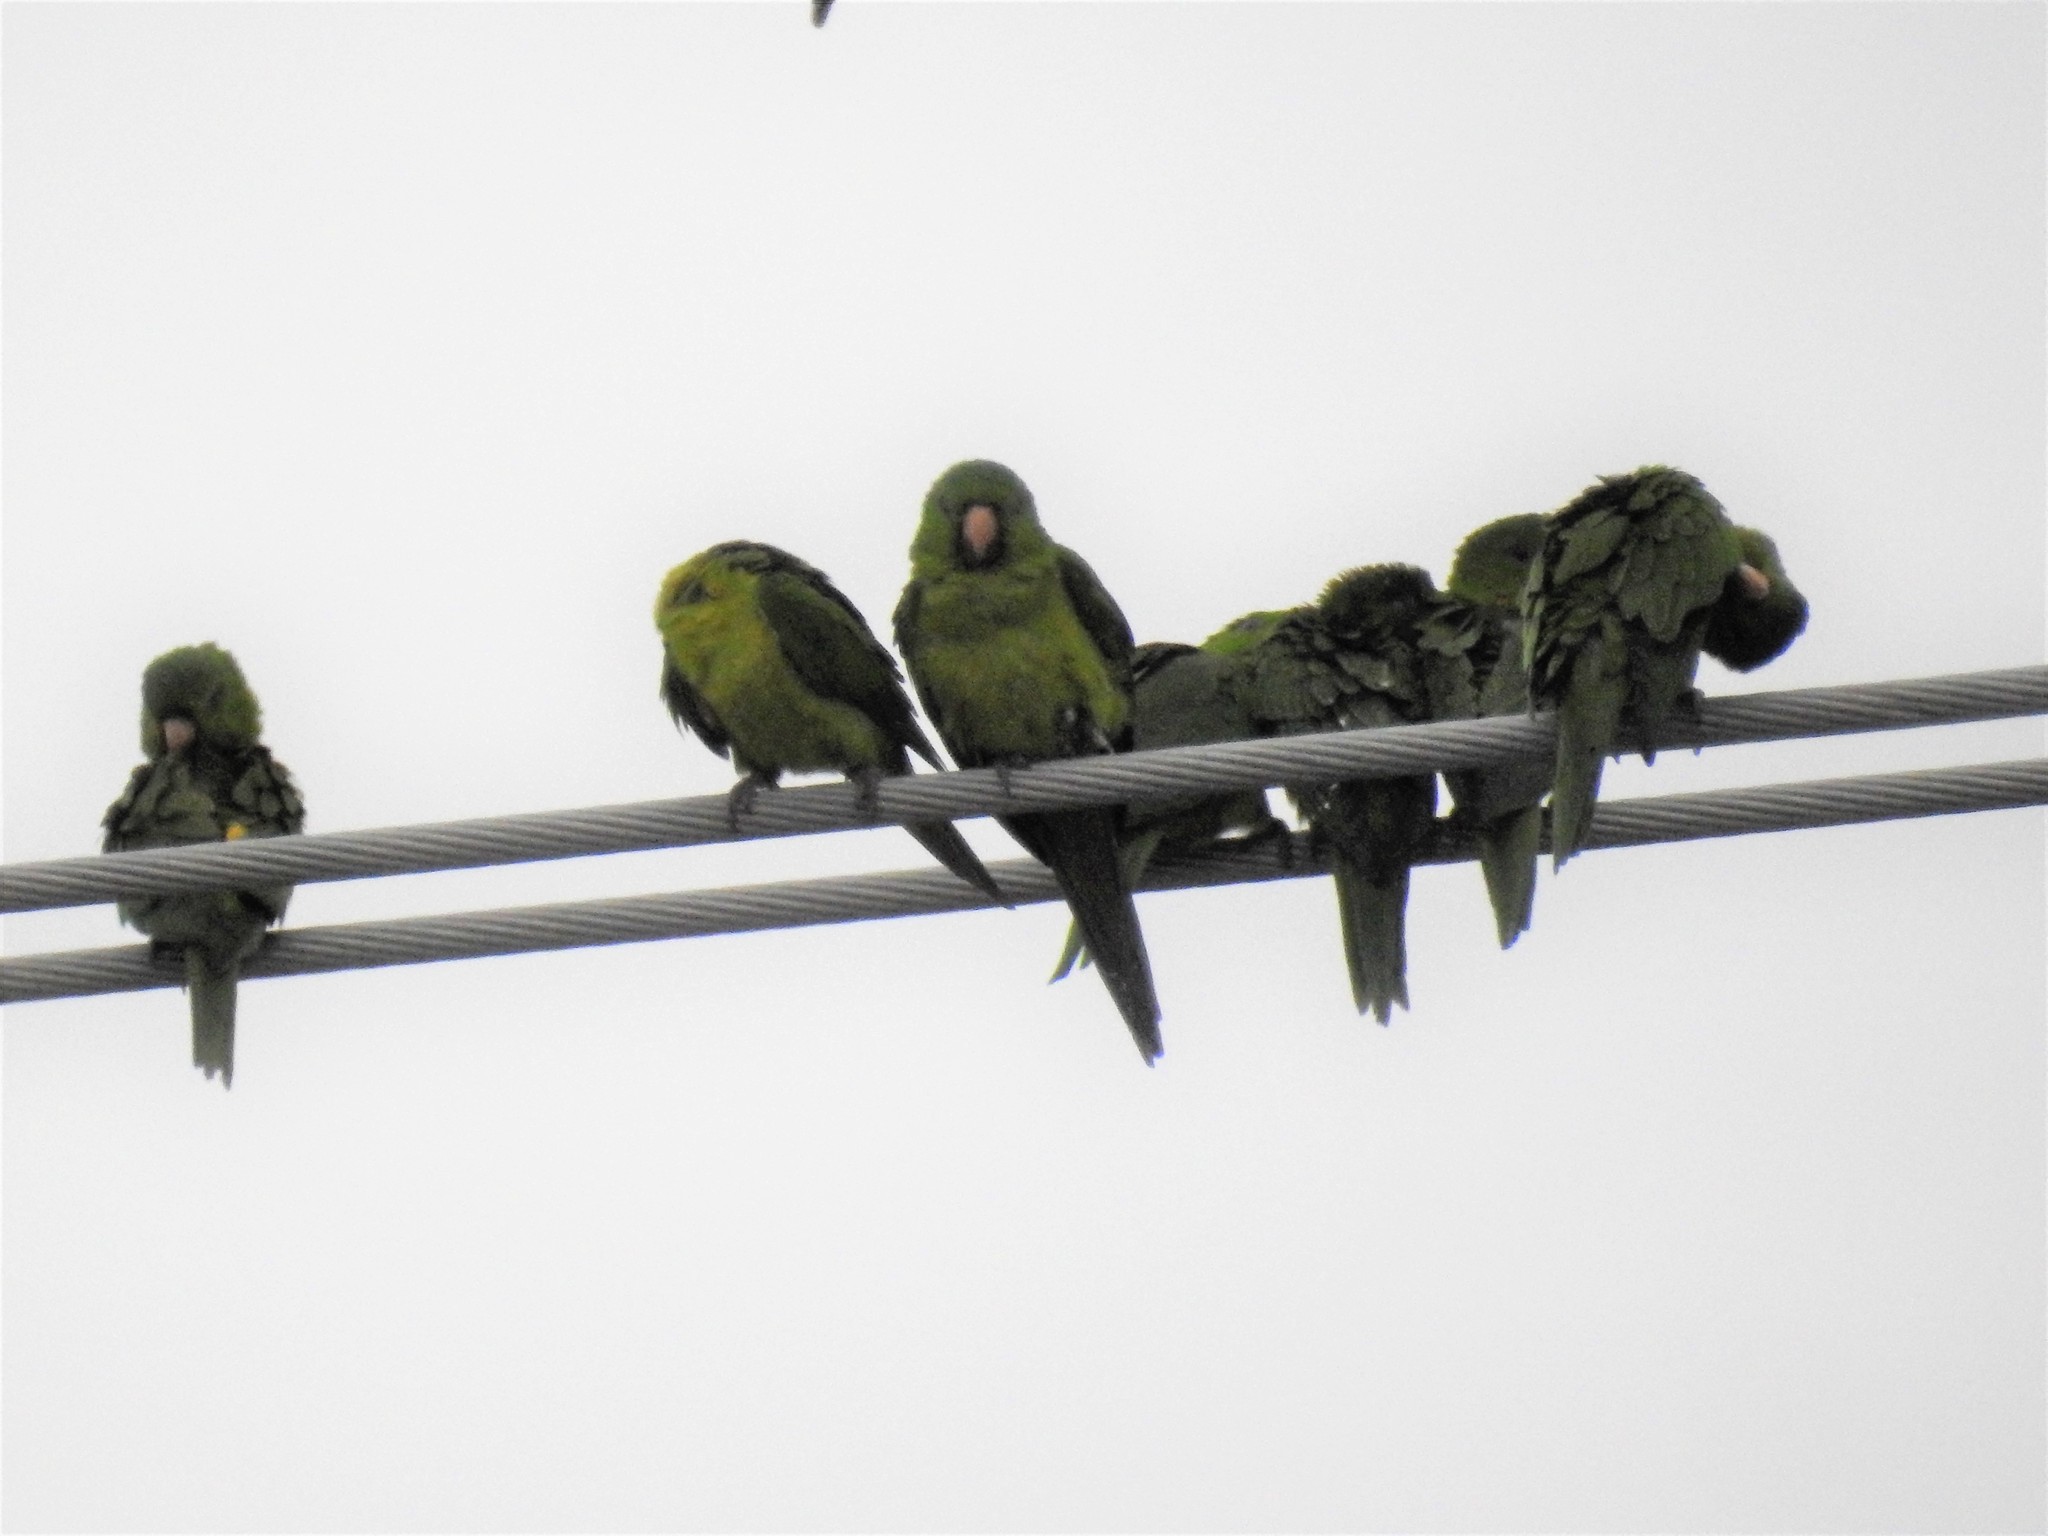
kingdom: Animalia
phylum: Chordata
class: Aves
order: Psittaciformes
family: Psittacidae
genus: Aratinga
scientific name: Aratinga holochlora
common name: Green parakeet
